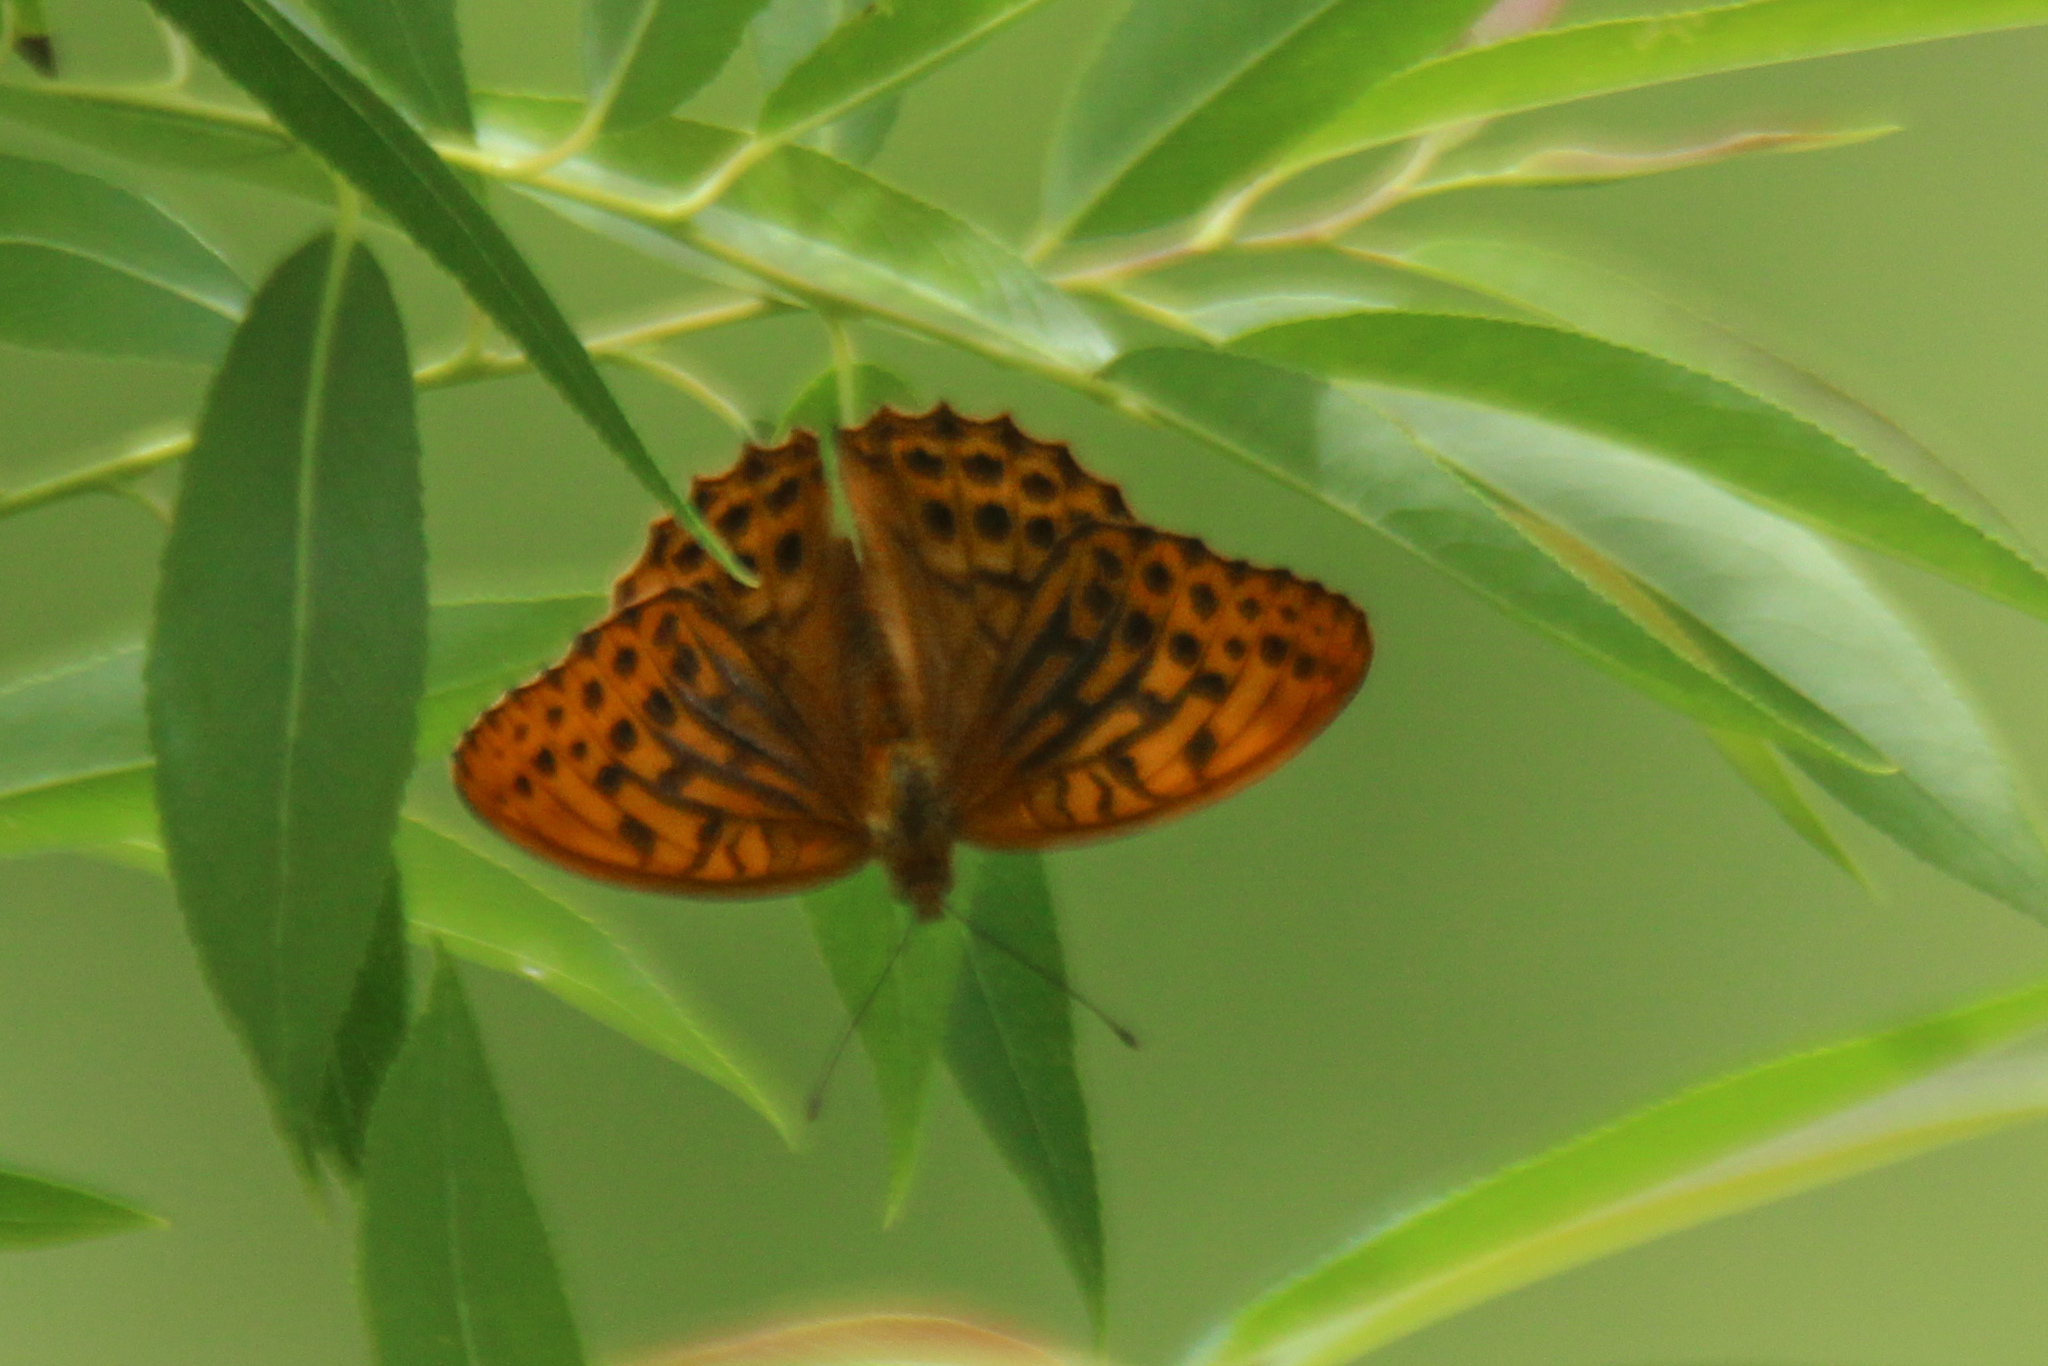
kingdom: Animalia
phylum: Arthropoda
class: Insecta
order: Lepidoptera
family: Nymphalidae
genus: Argynnis
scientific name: Argynnis paphia
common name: Silver-washed fritillary
